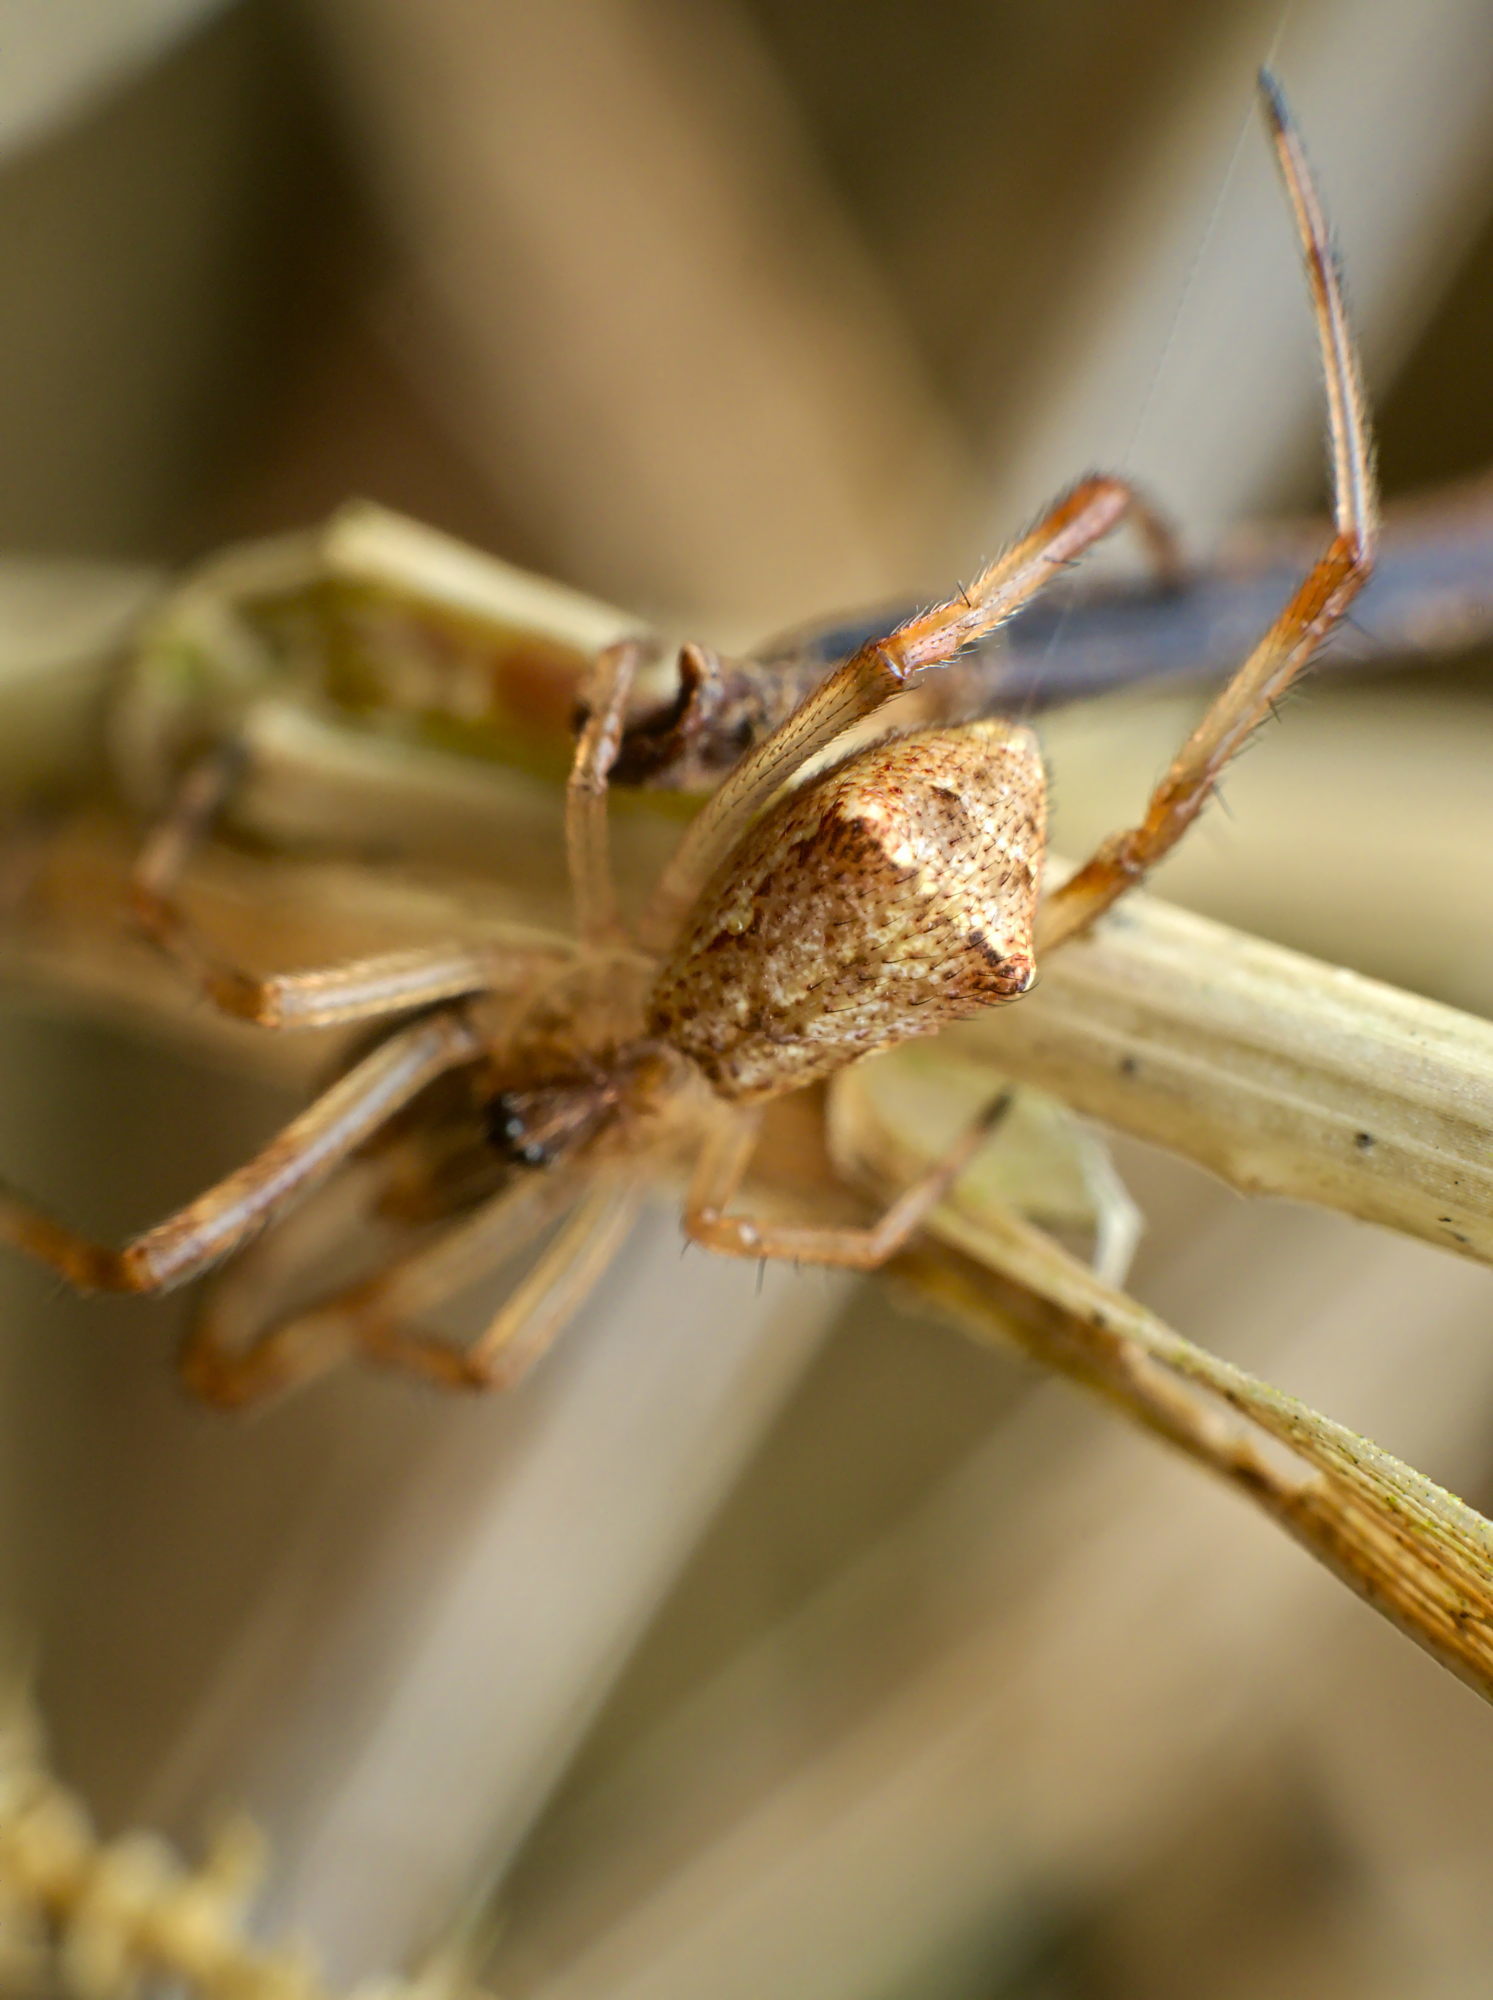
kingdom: Animalia
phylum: Arthropoda
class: Arachnida
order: Araneae
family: Theridiidae
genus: Episinus
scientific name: Episinus angulatus
